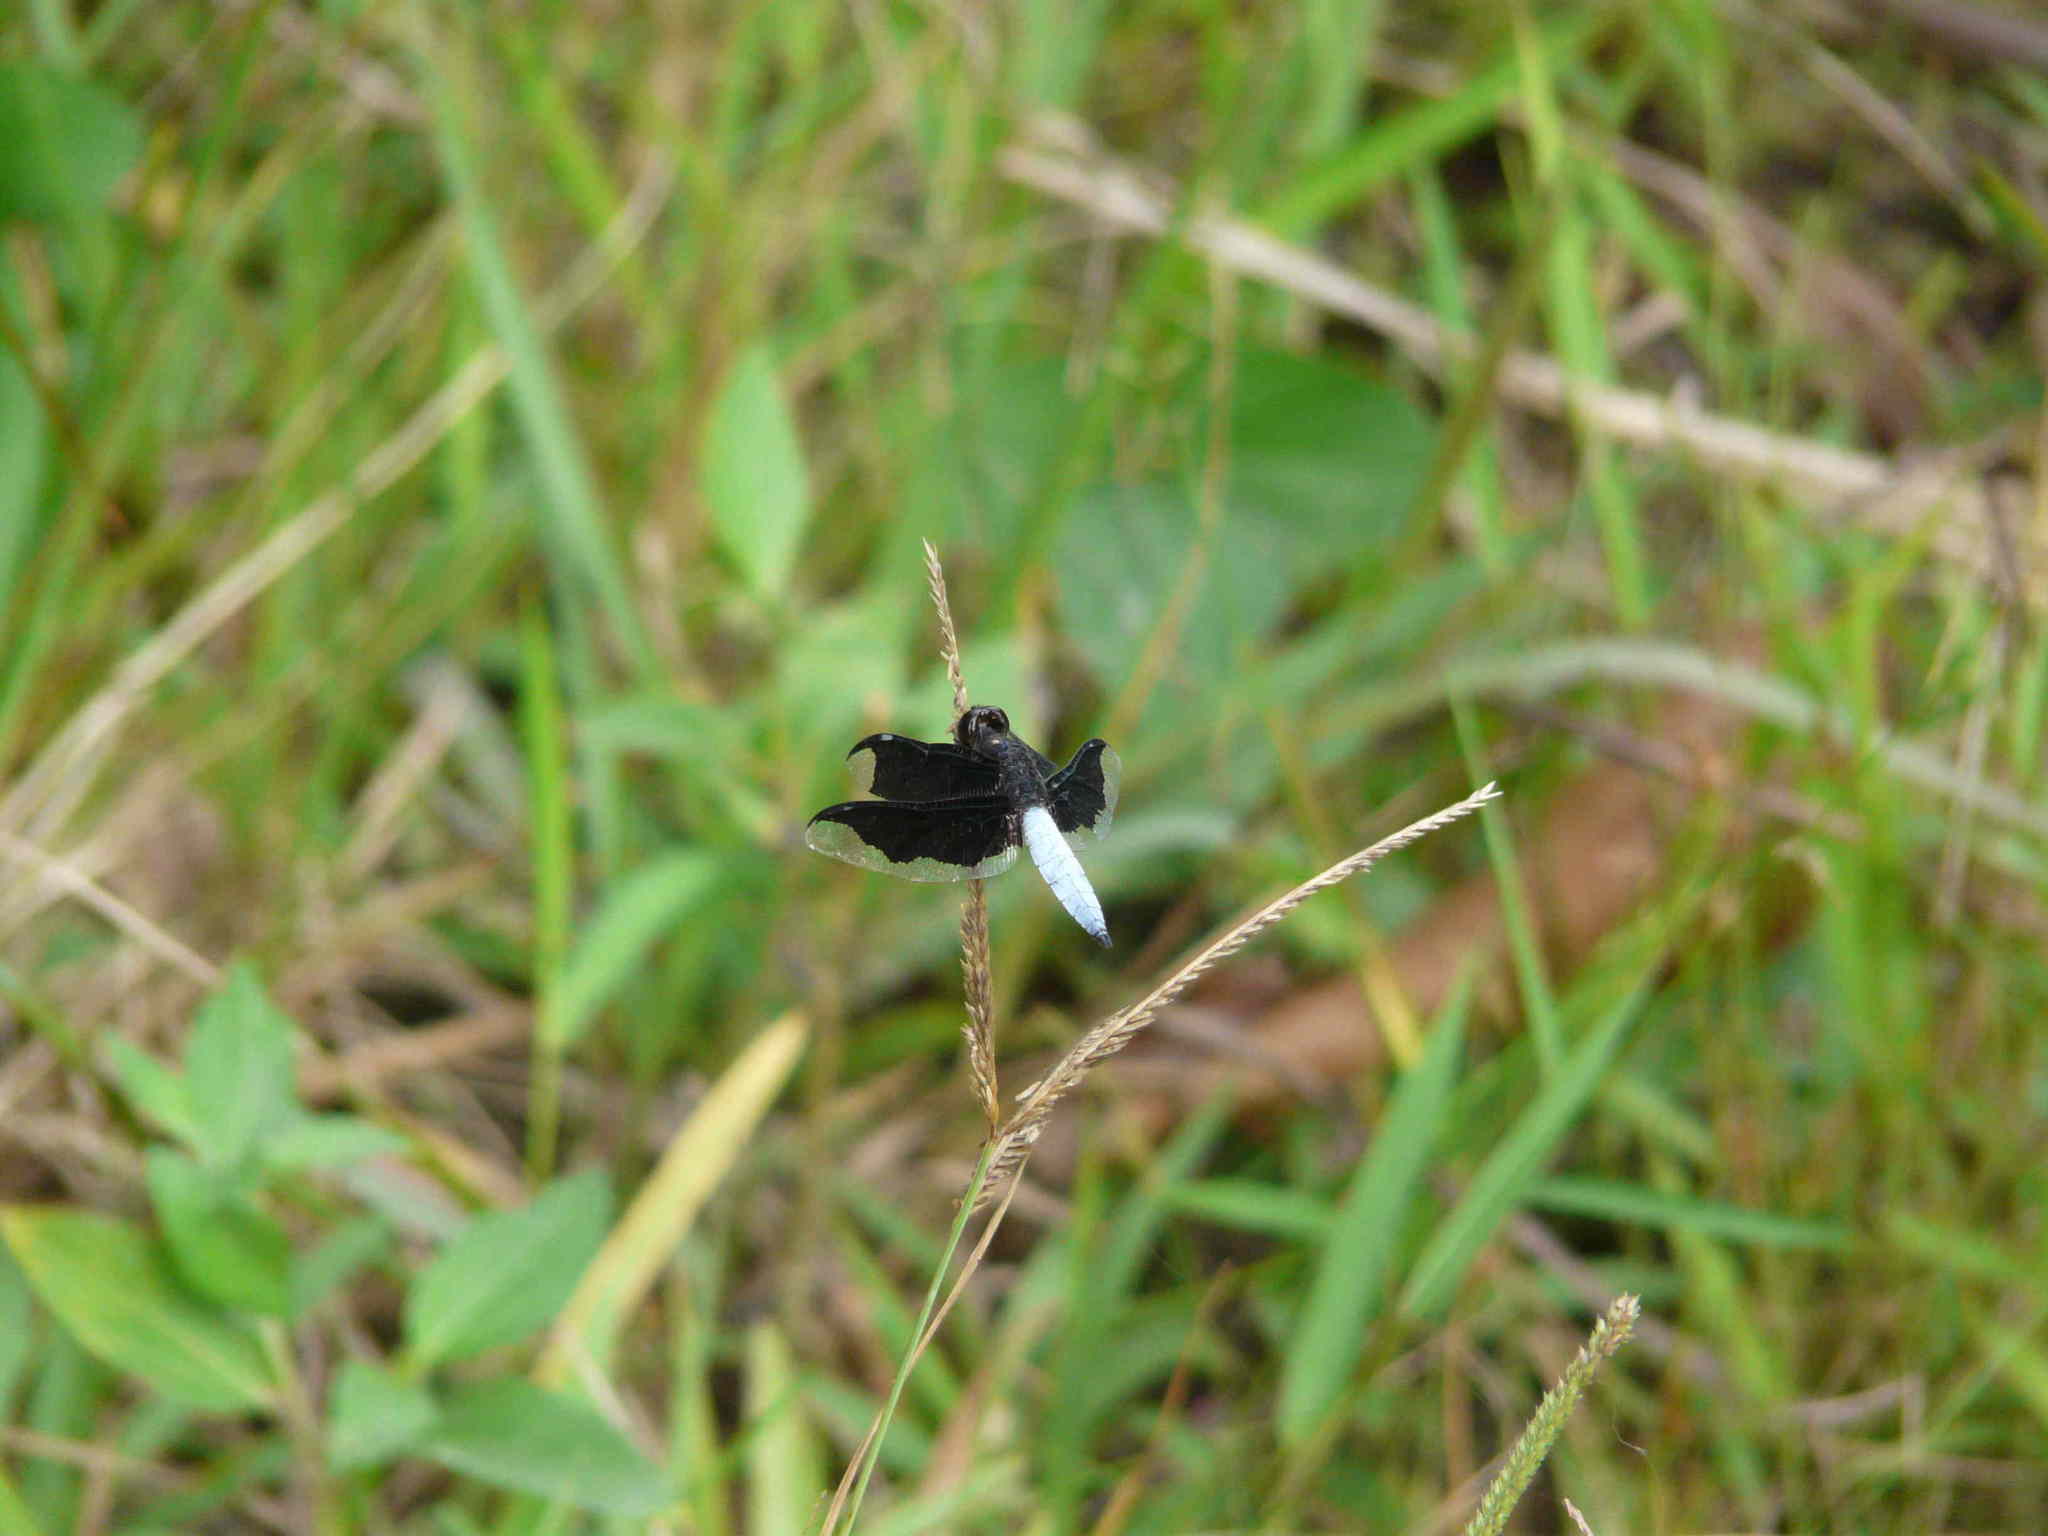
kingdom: Animalia
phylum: Arthropoda
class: Insecta
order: Odonata
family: Libellulidae
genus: Palpopleura
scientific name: Palpopleura lucia
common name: Lucia widow
